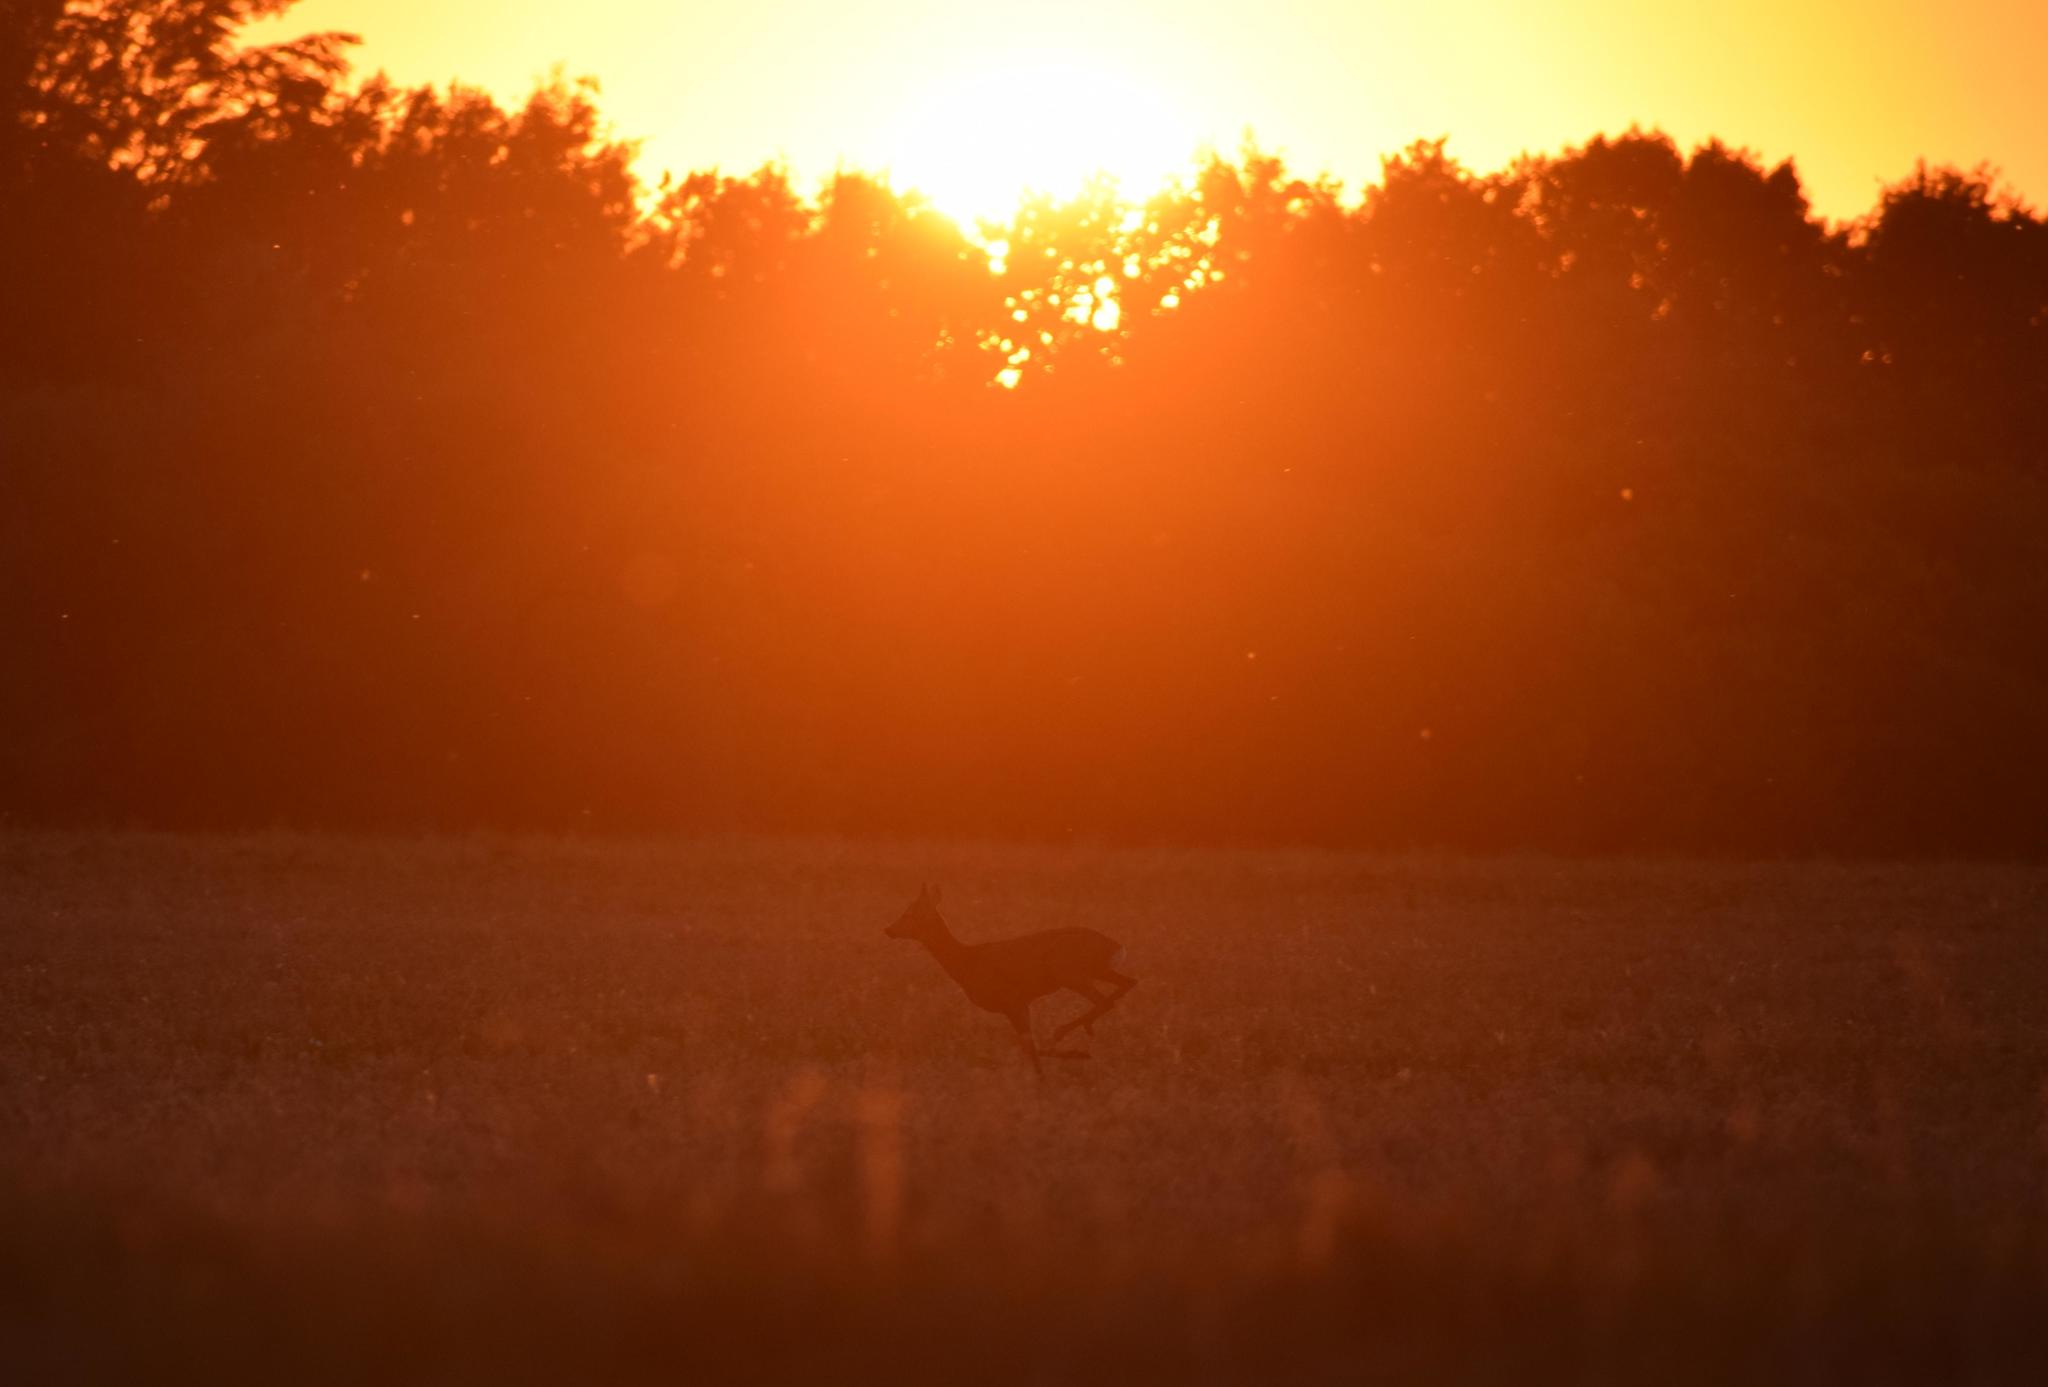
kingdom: Animalia
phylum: Chordata
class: Mammalia
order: Artiodactyla
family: Cervidae
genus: Capreolus
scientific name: Capreolus capreolus
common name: Western roe deer
